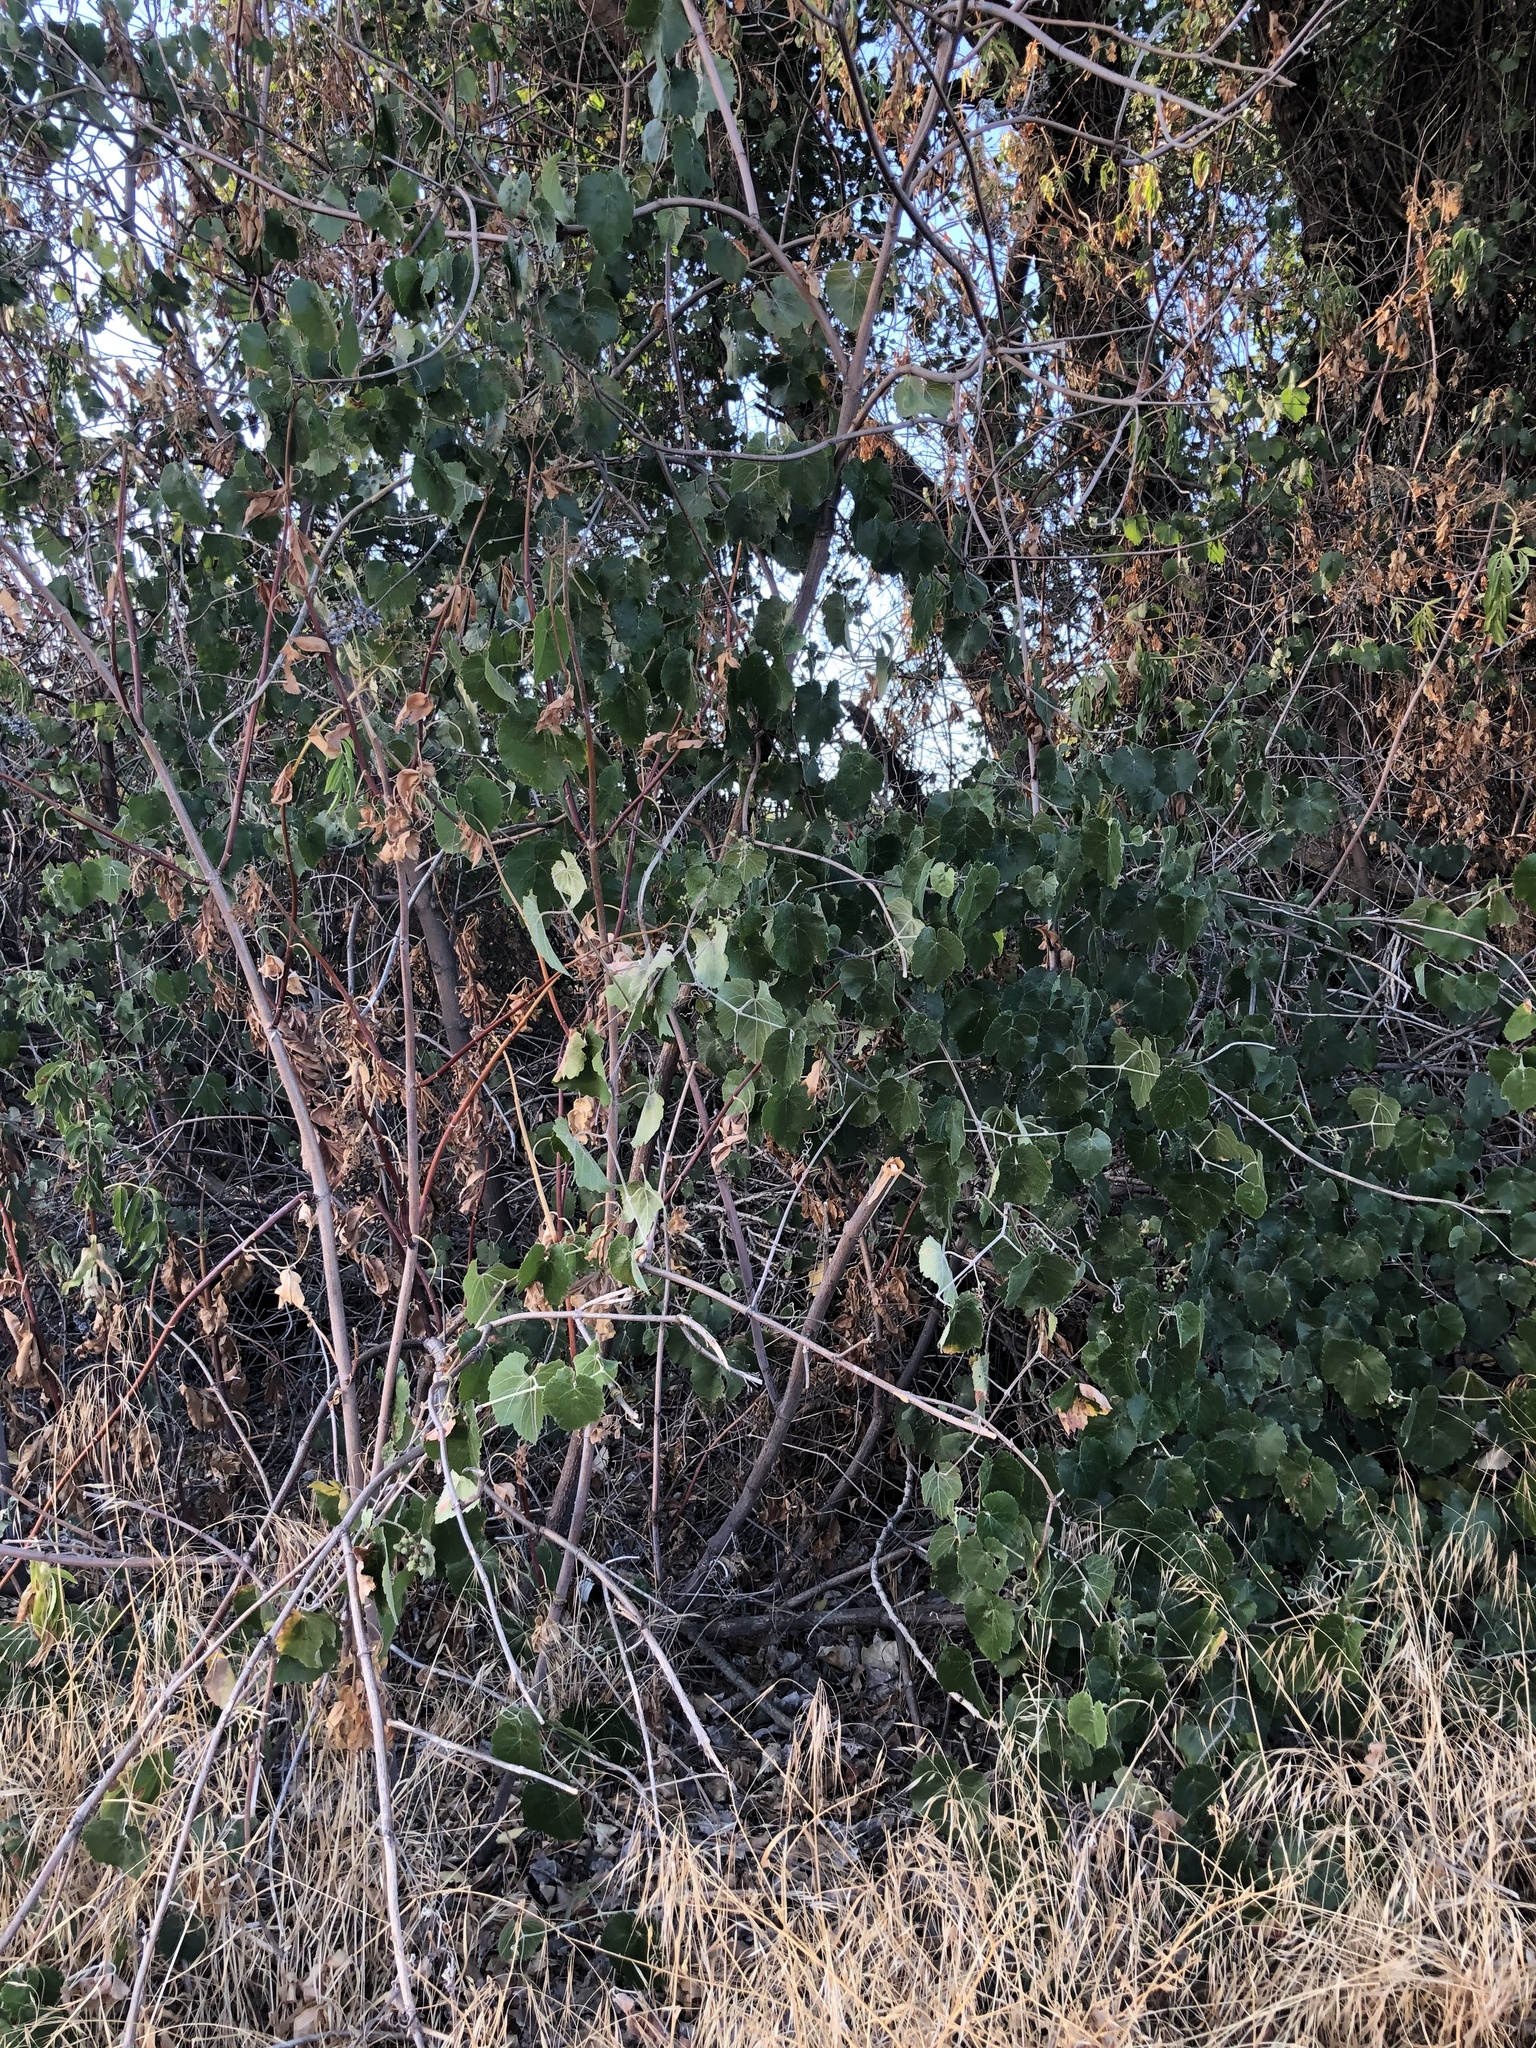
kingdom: Plantae
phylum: Tracheophyta
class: Magnoliopsida
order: Vitales
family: Vitaceae
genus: Vitis
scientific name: Vitis californica
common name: California wild grape
